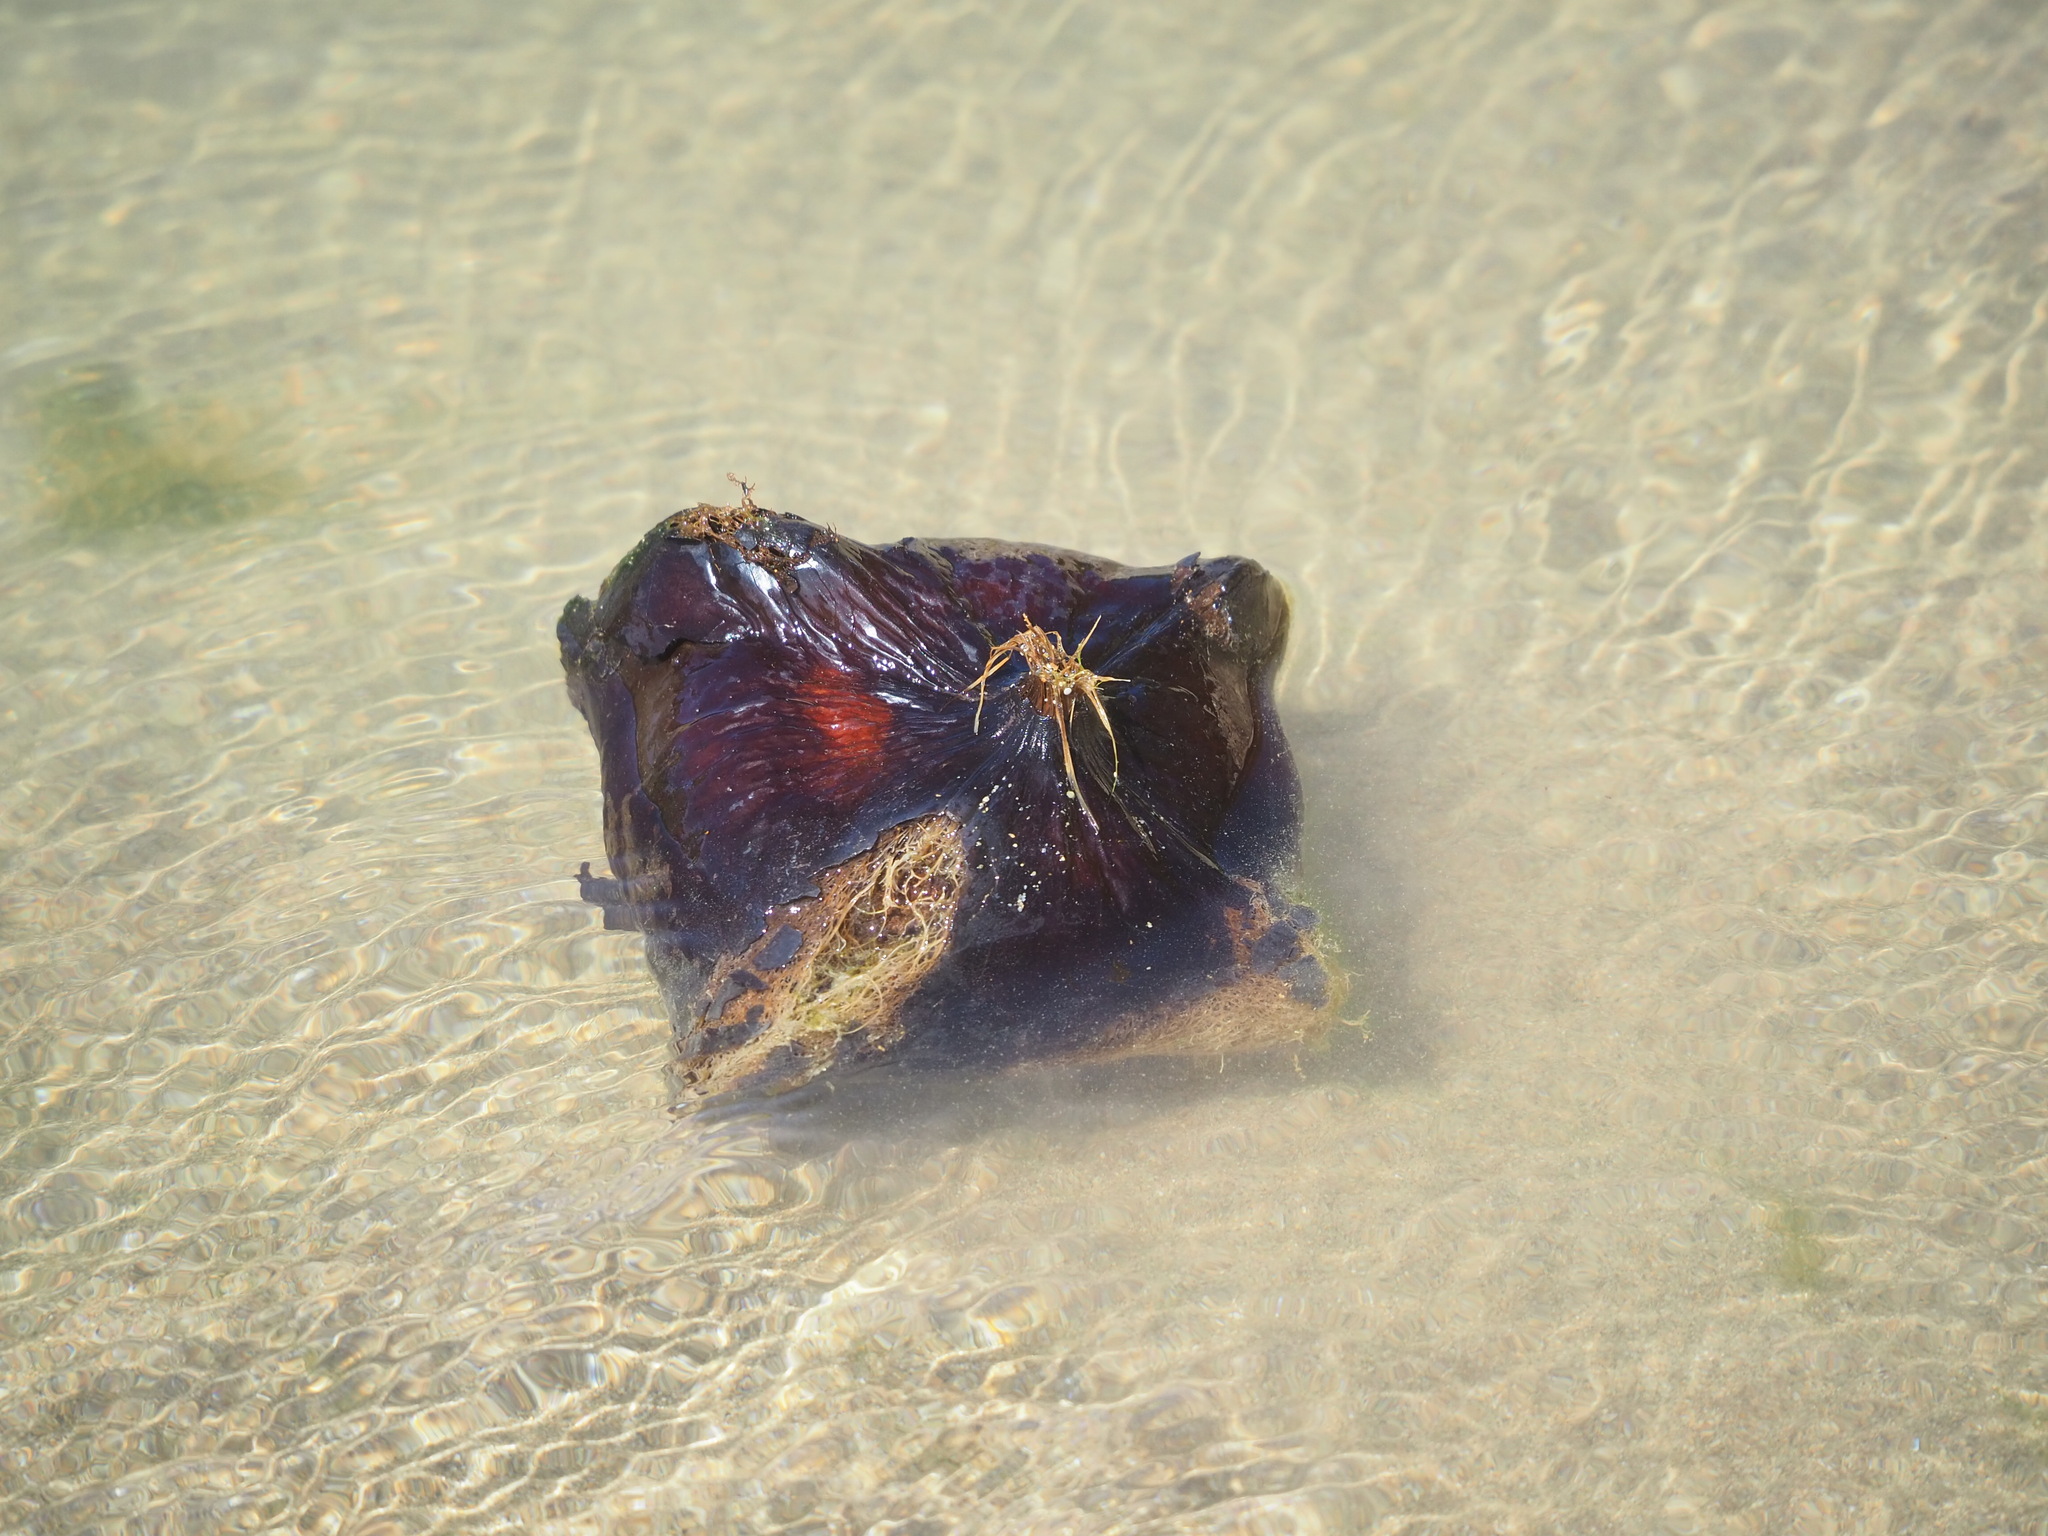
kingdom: Plantae
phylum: Tracheophyta
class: Magnoliopsida
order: Ericales
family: Lecythidaceae
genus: Barringtonia
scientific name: Barringtonia asiatica
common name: Mango-pine
